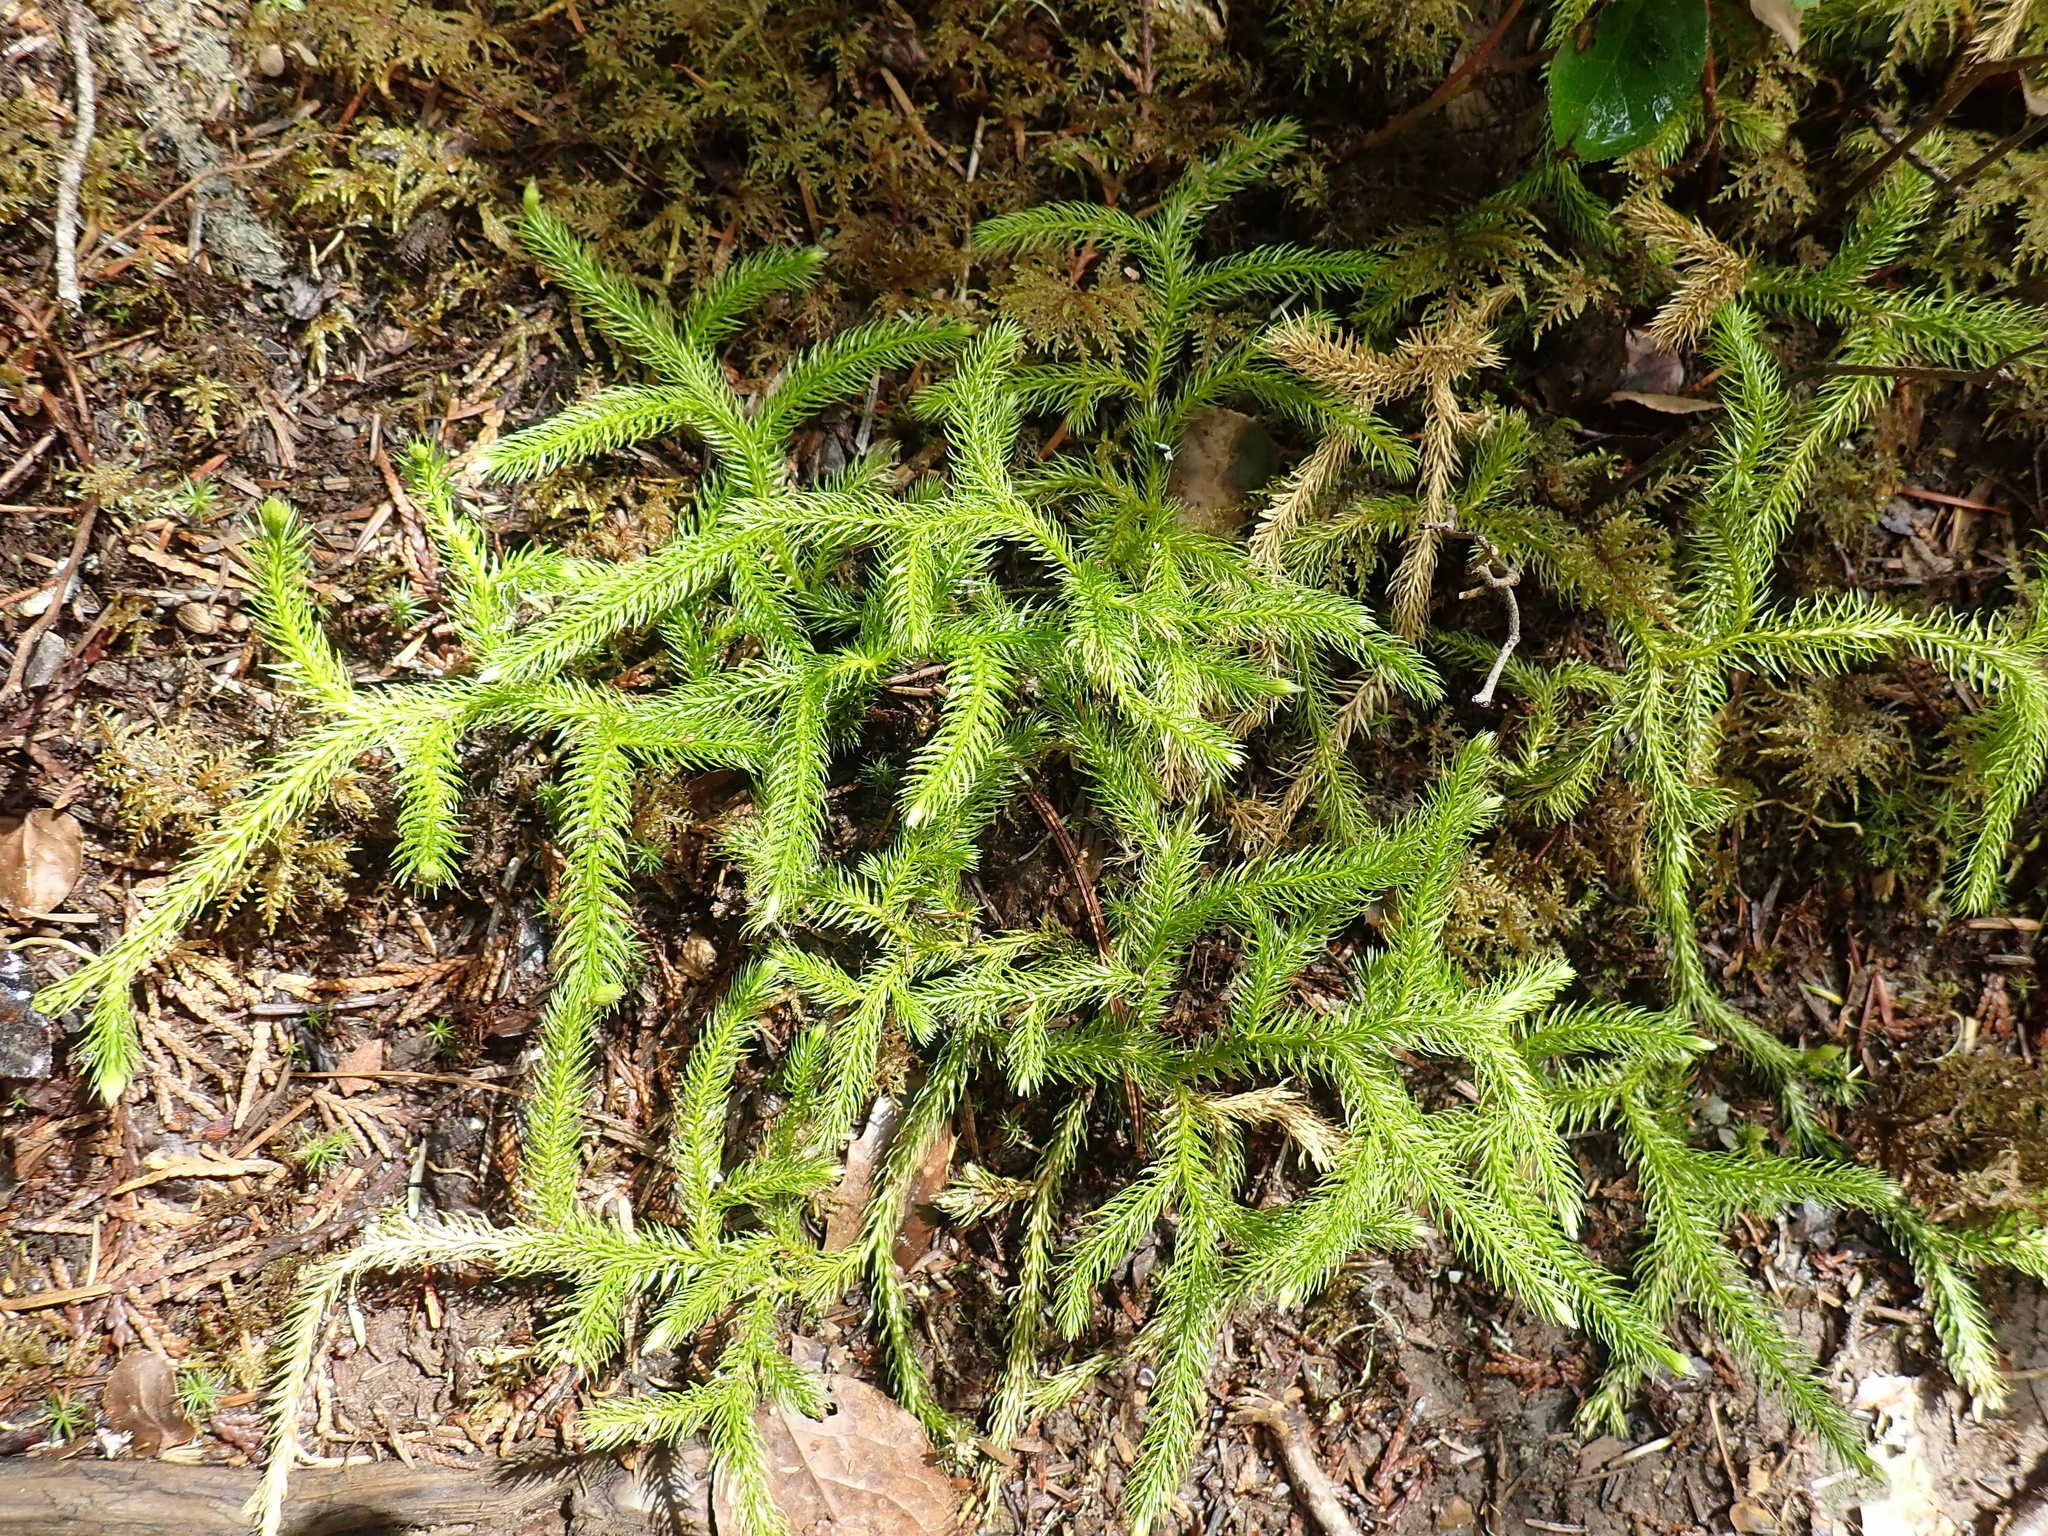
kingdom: Plantae
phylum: Tracheophyta
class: Lycopodiopsida
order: Lycopodiales
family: Lycopodiaceae
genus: Lycopodium
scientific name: Lycopodium clavatum
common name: Stag's-horn clubmoss
